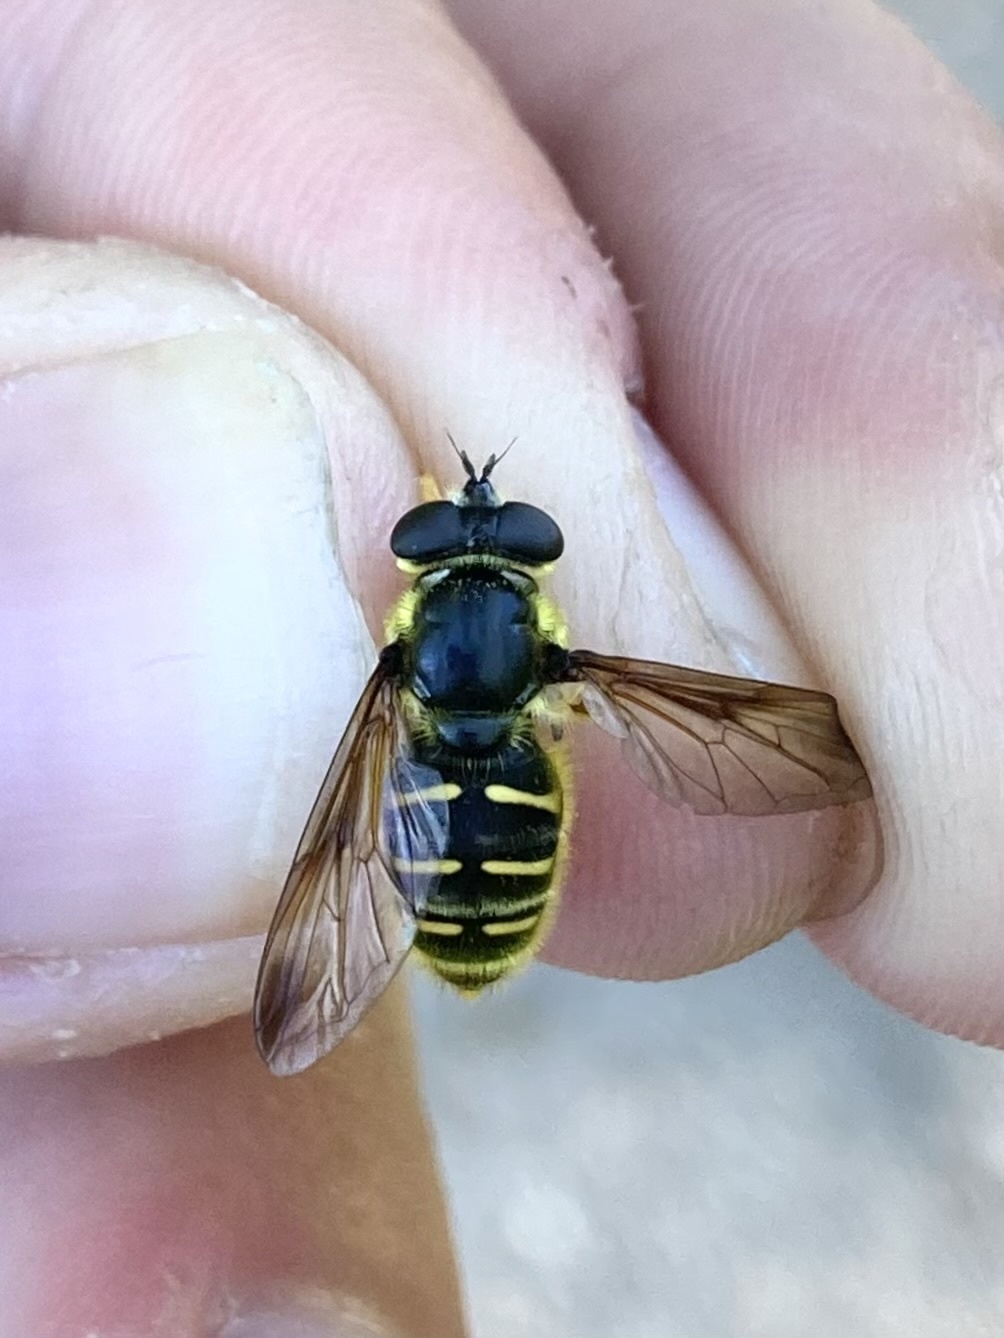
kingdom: Animalia
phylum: Arthropoda
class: Insecta
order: Diptera
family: Syrphidae
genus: Sericomyia
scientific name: Sericomyia chrysotoxoides
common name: Oblique-banded pond fly
